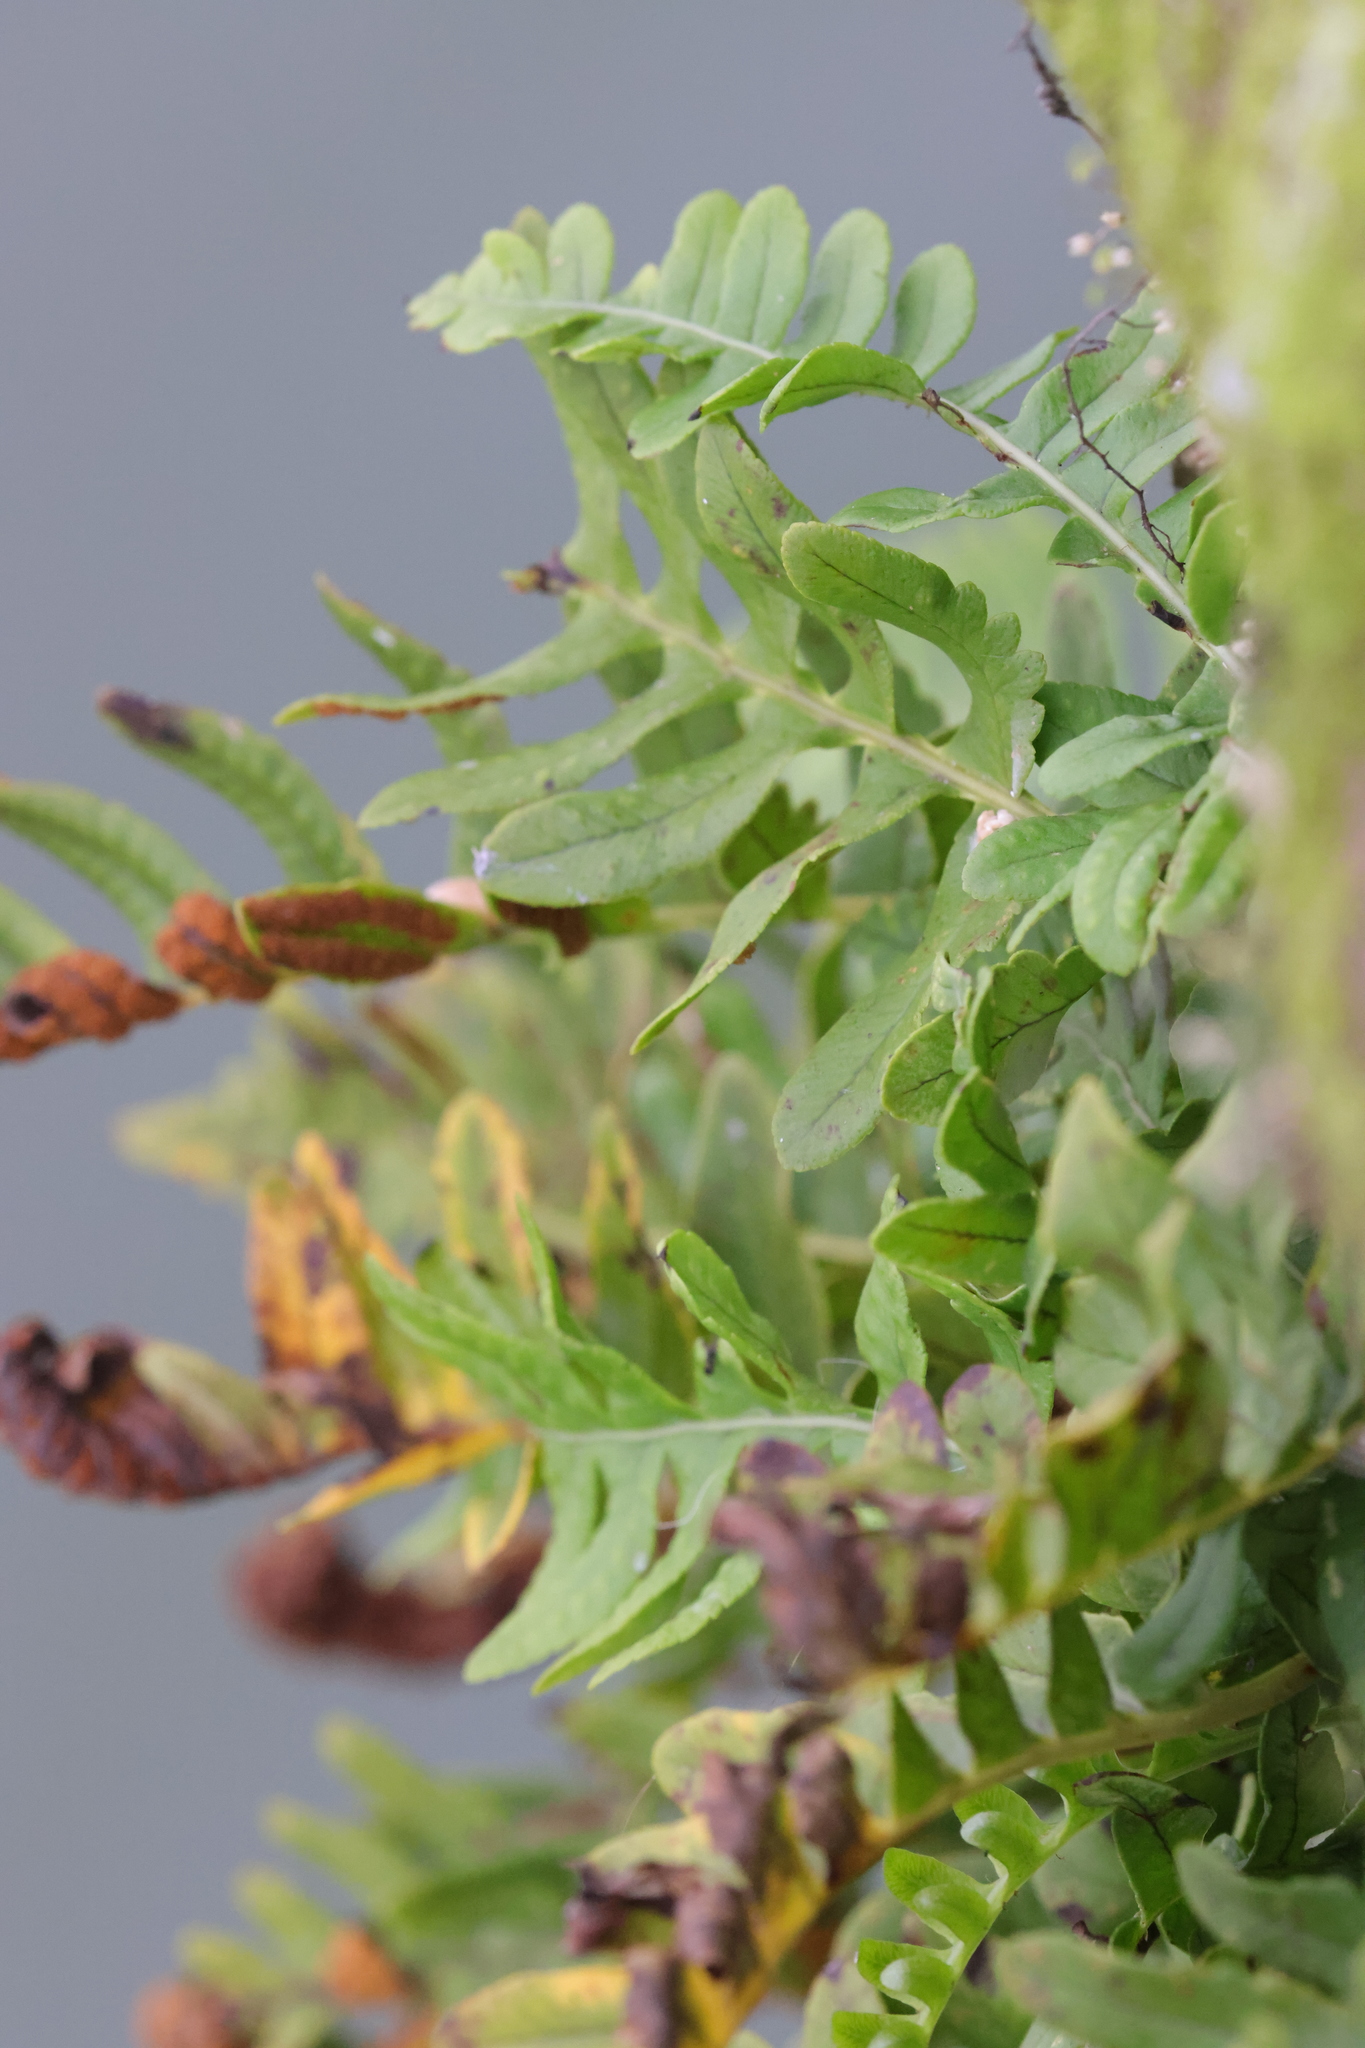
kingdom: Plantae
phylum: Tracheophyta
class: Polypodiopsida
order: Polypodiales
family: Polypodiaceae
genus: Polypodium
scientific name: Polypodium vulgare
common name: Common polypody
